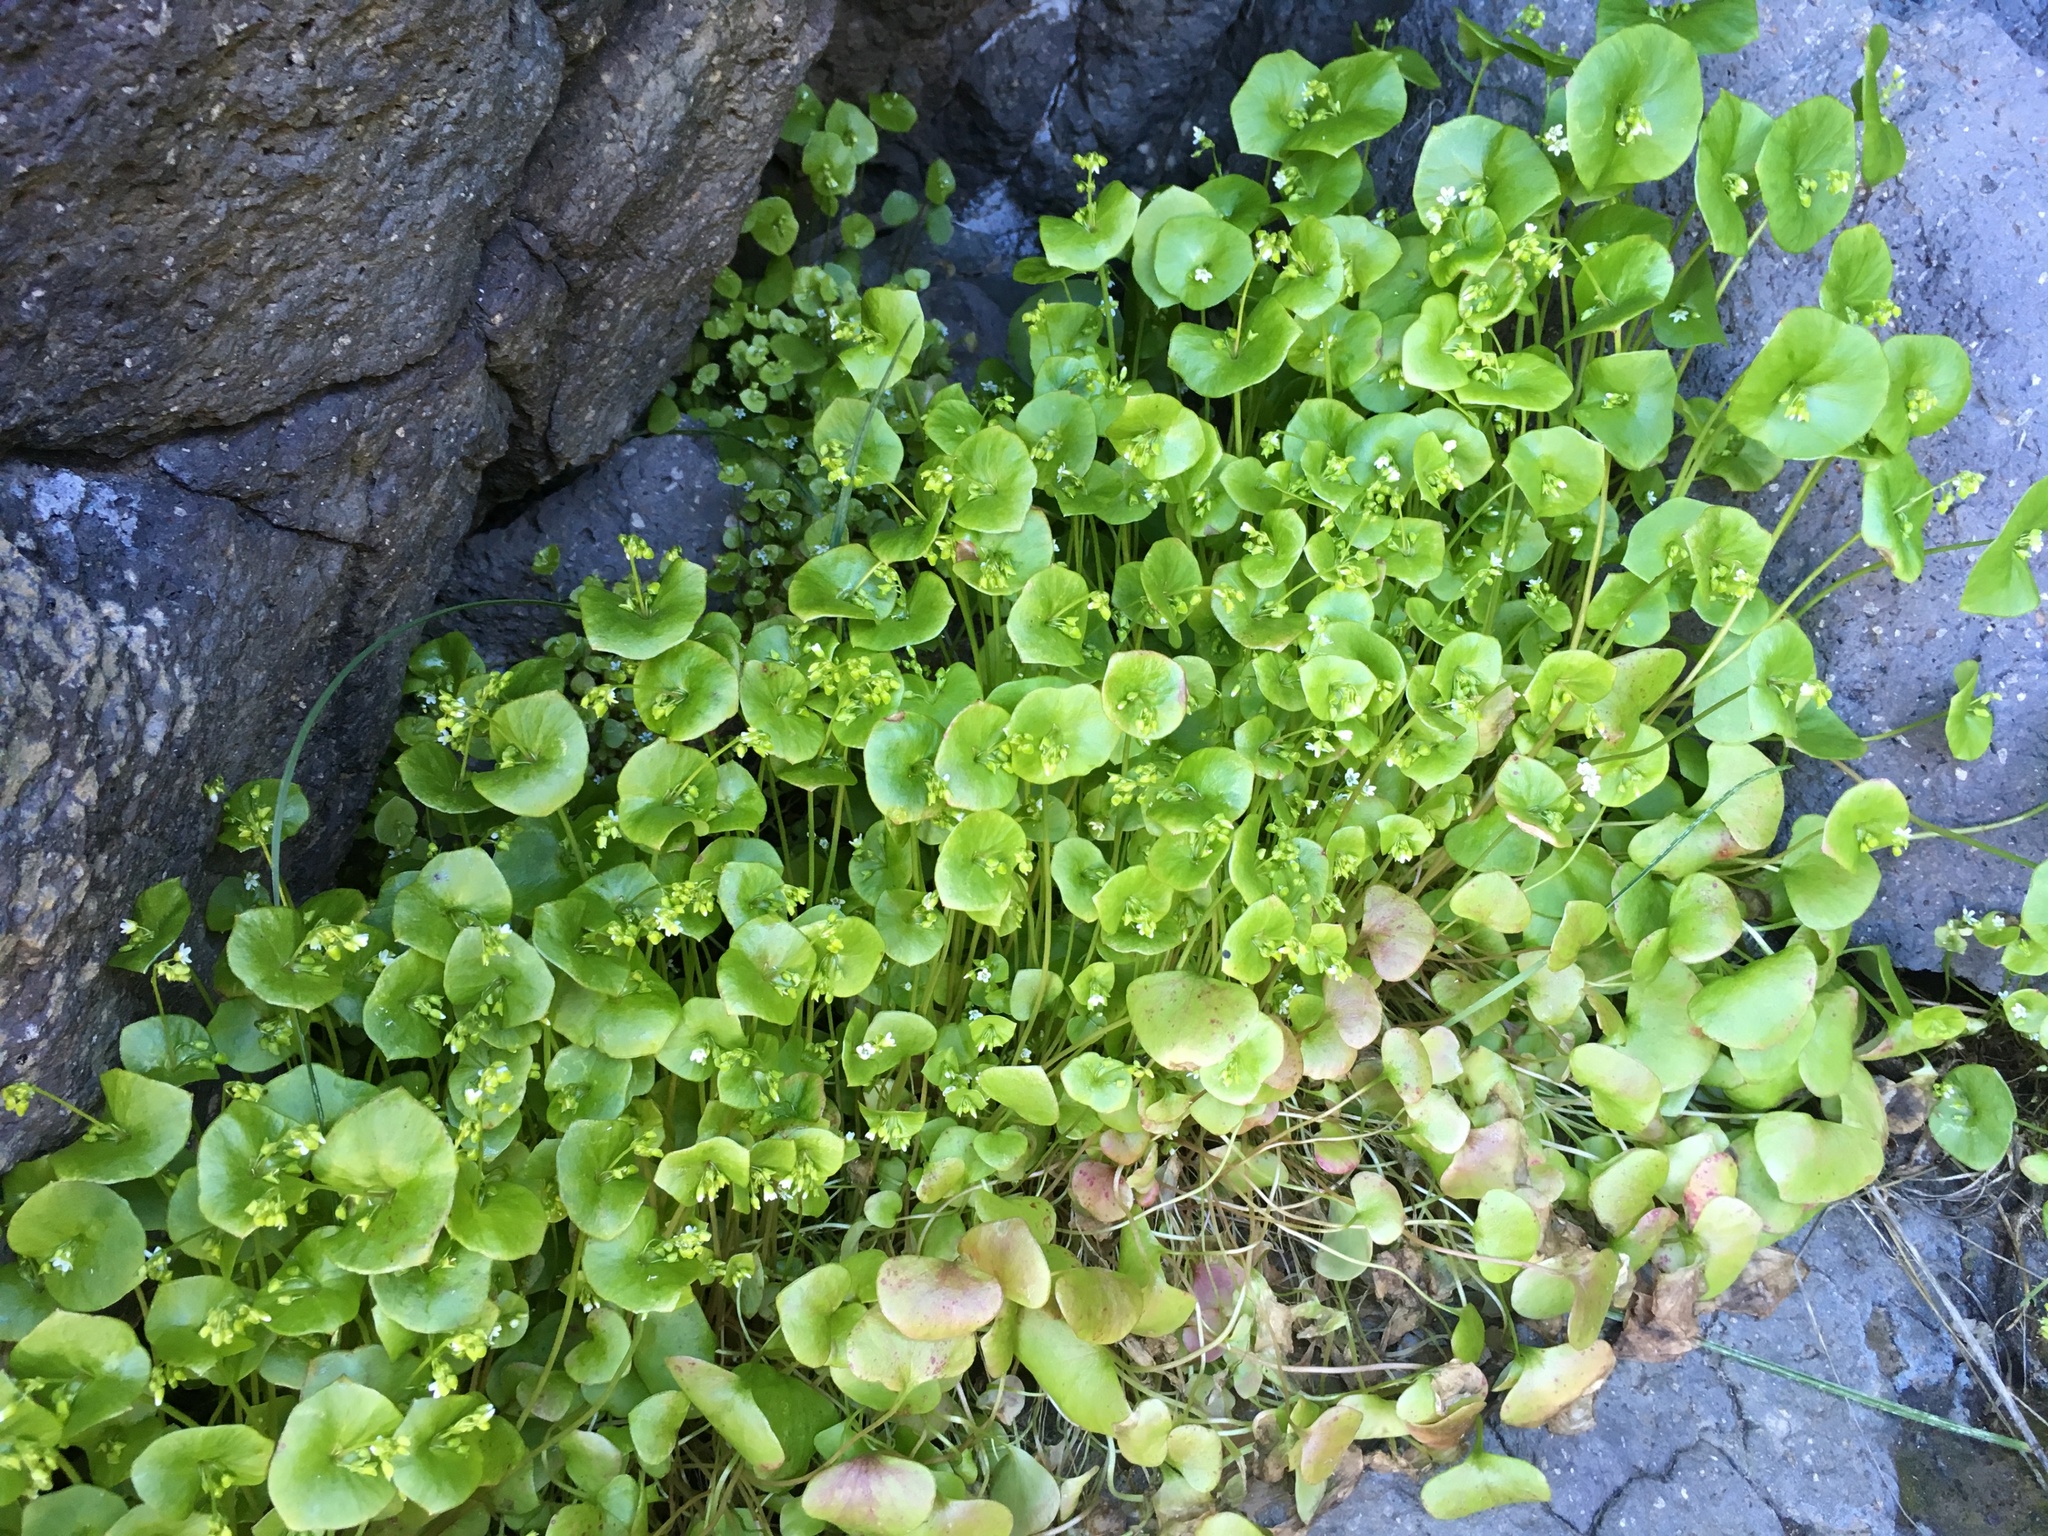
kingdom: Plantae
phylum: Tracheophyta
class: Magnoliopsida
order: Caryophyllales
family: Montiaceae
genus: Claytonia
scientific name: Claytonia perfoliata
